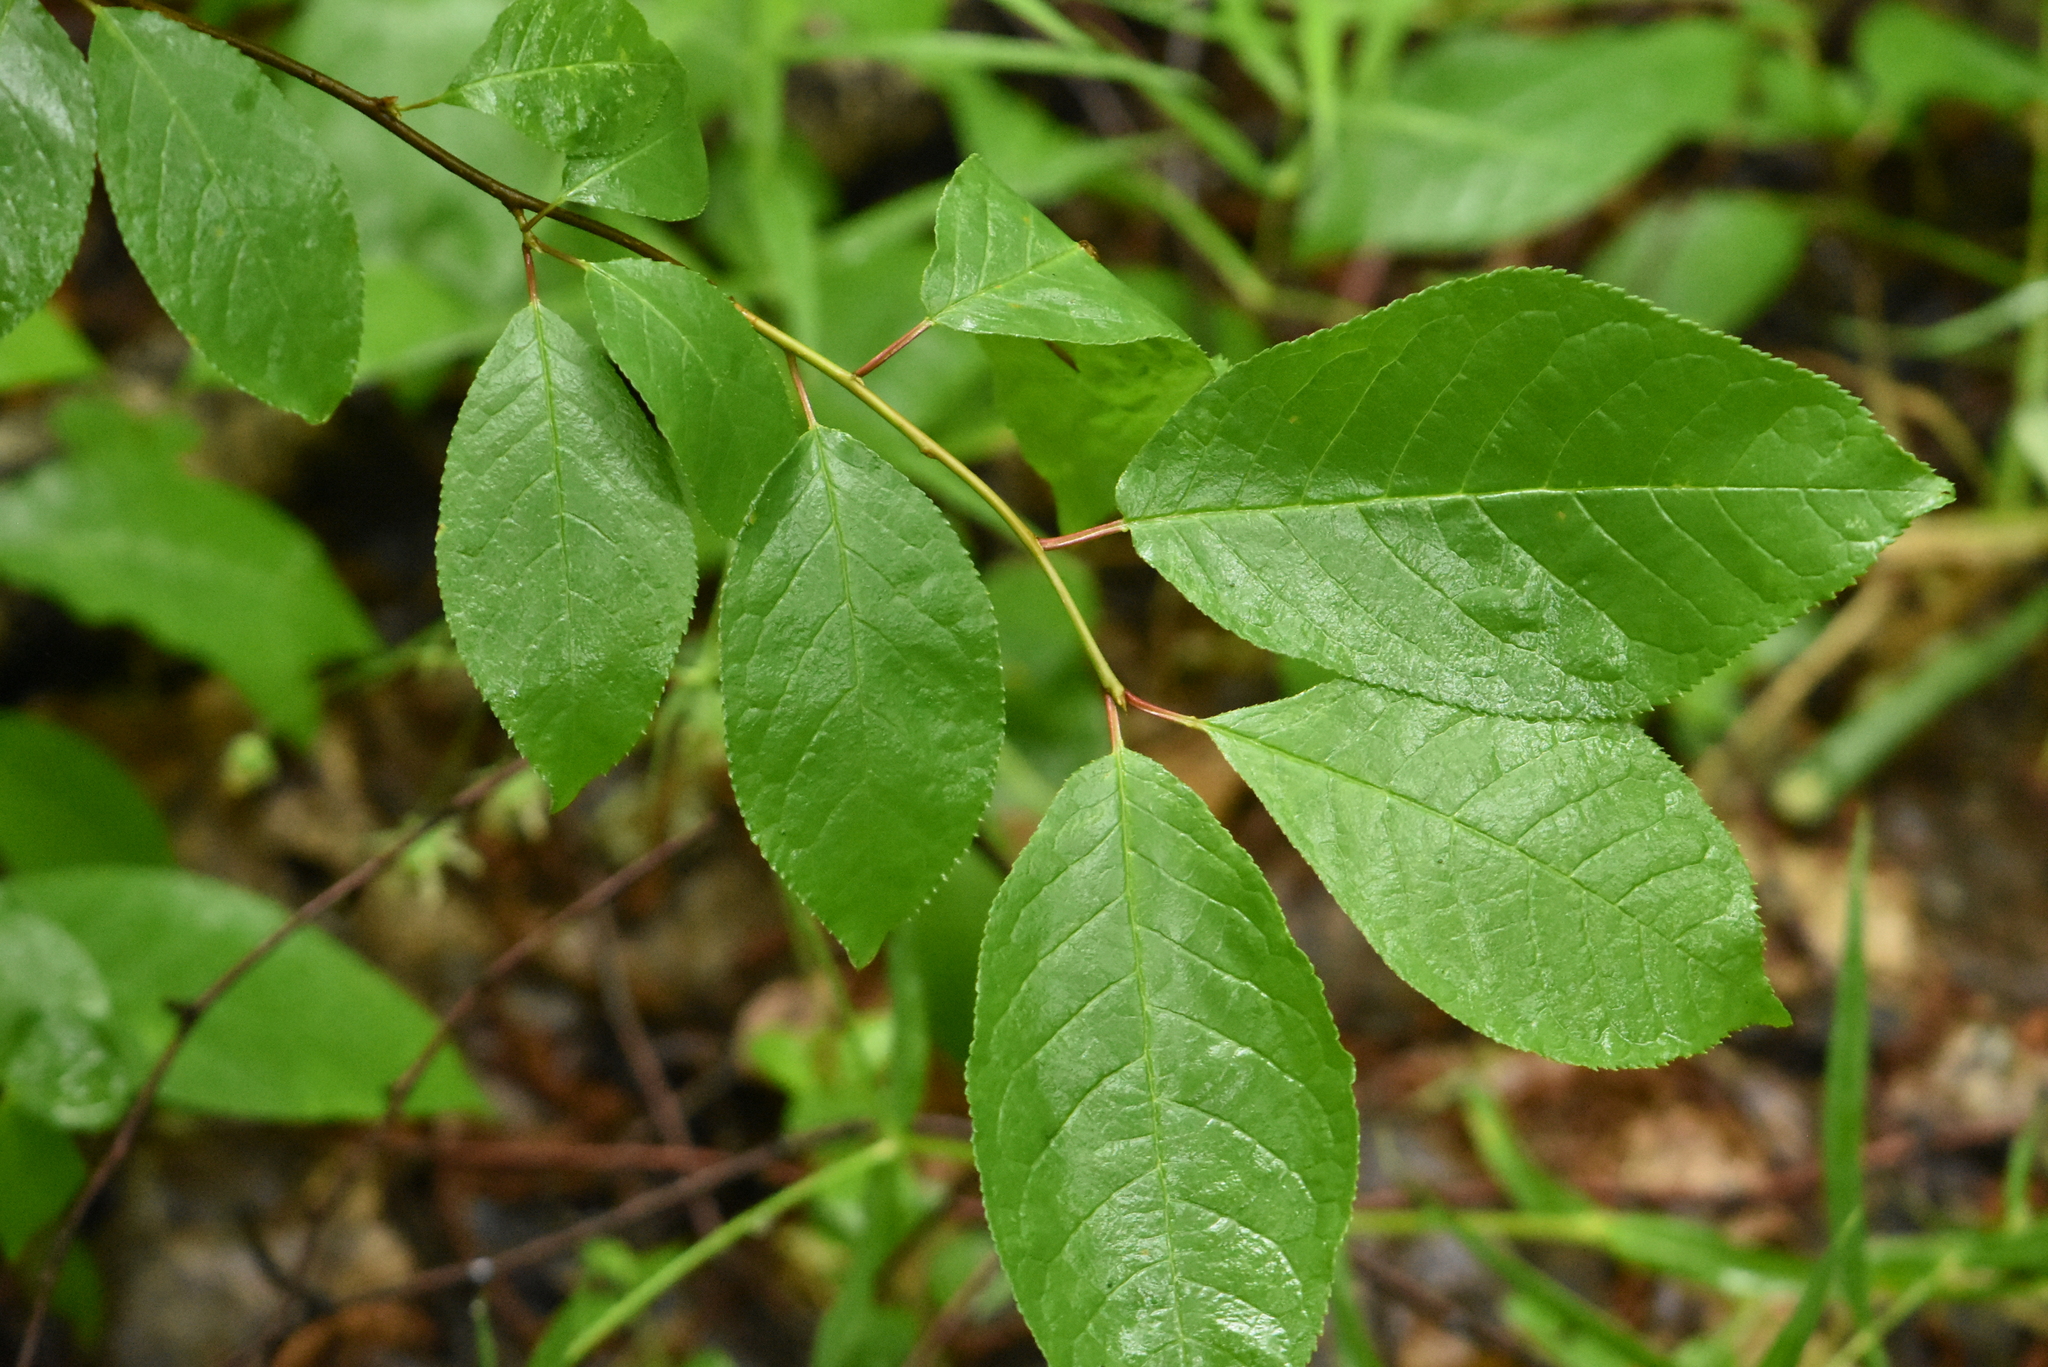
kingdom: Plantae
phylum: Tracheophyta
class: Magnoliopsida
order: Rosales
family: Rosaceae
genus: Prunus
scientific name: Prunus padus
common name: Bird cherry
